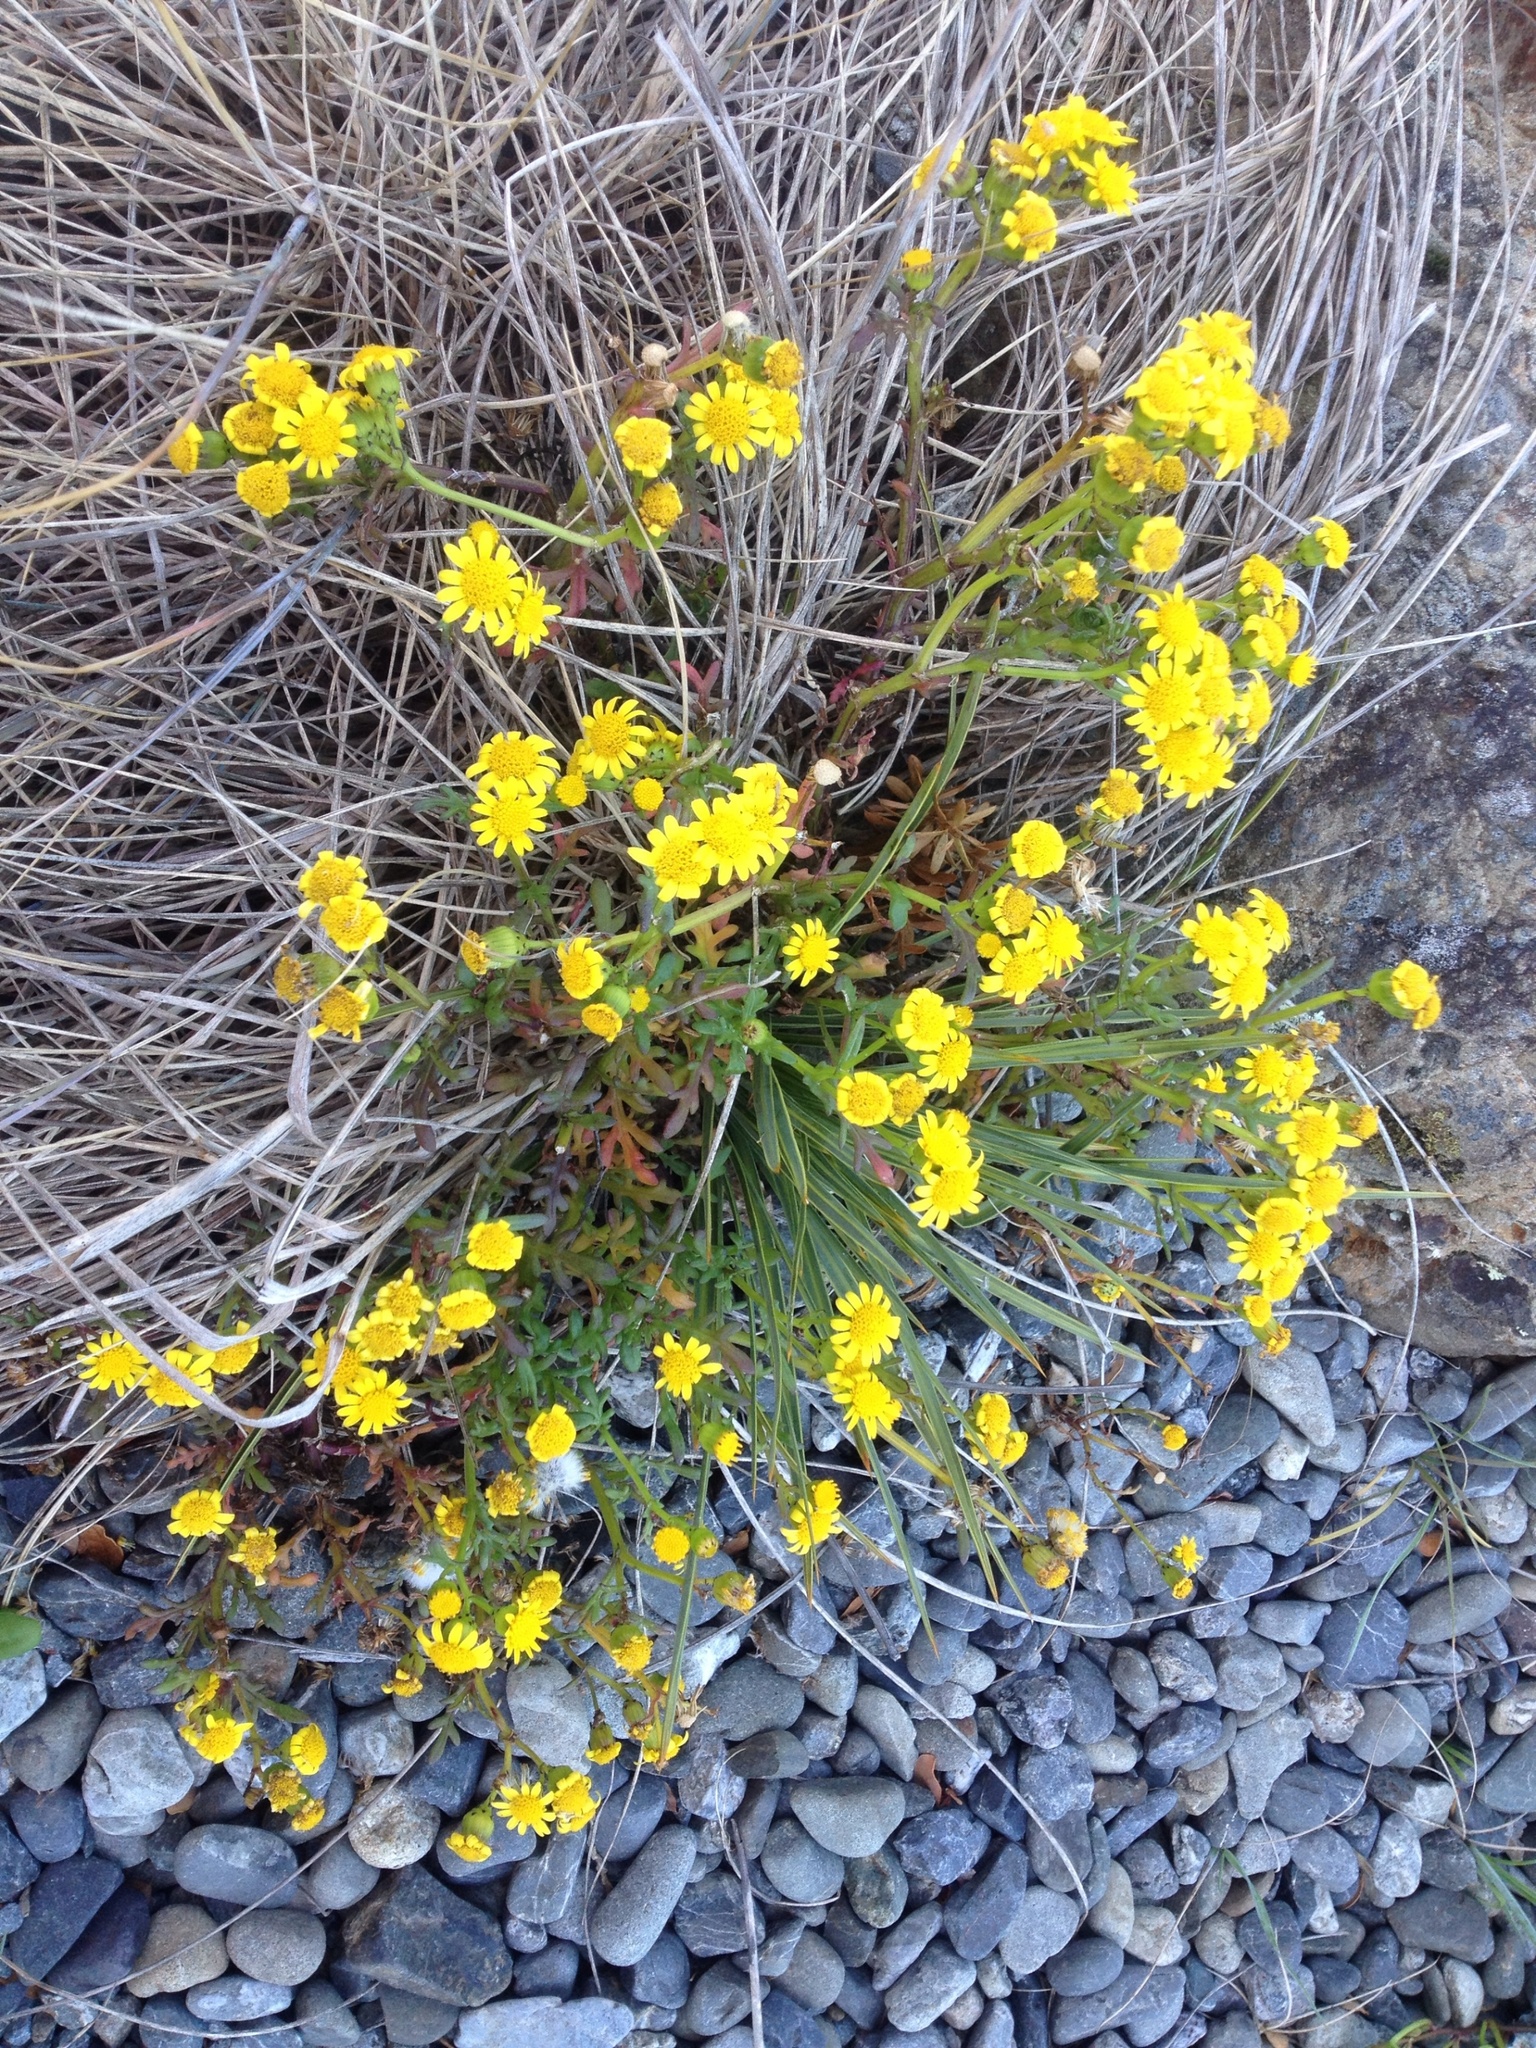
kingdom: Plantae
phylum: Tracheophyta
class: Magnoliopsida
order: Asterales
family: Asteraceae
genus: Senecio
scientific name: Senecio skirrhodon
